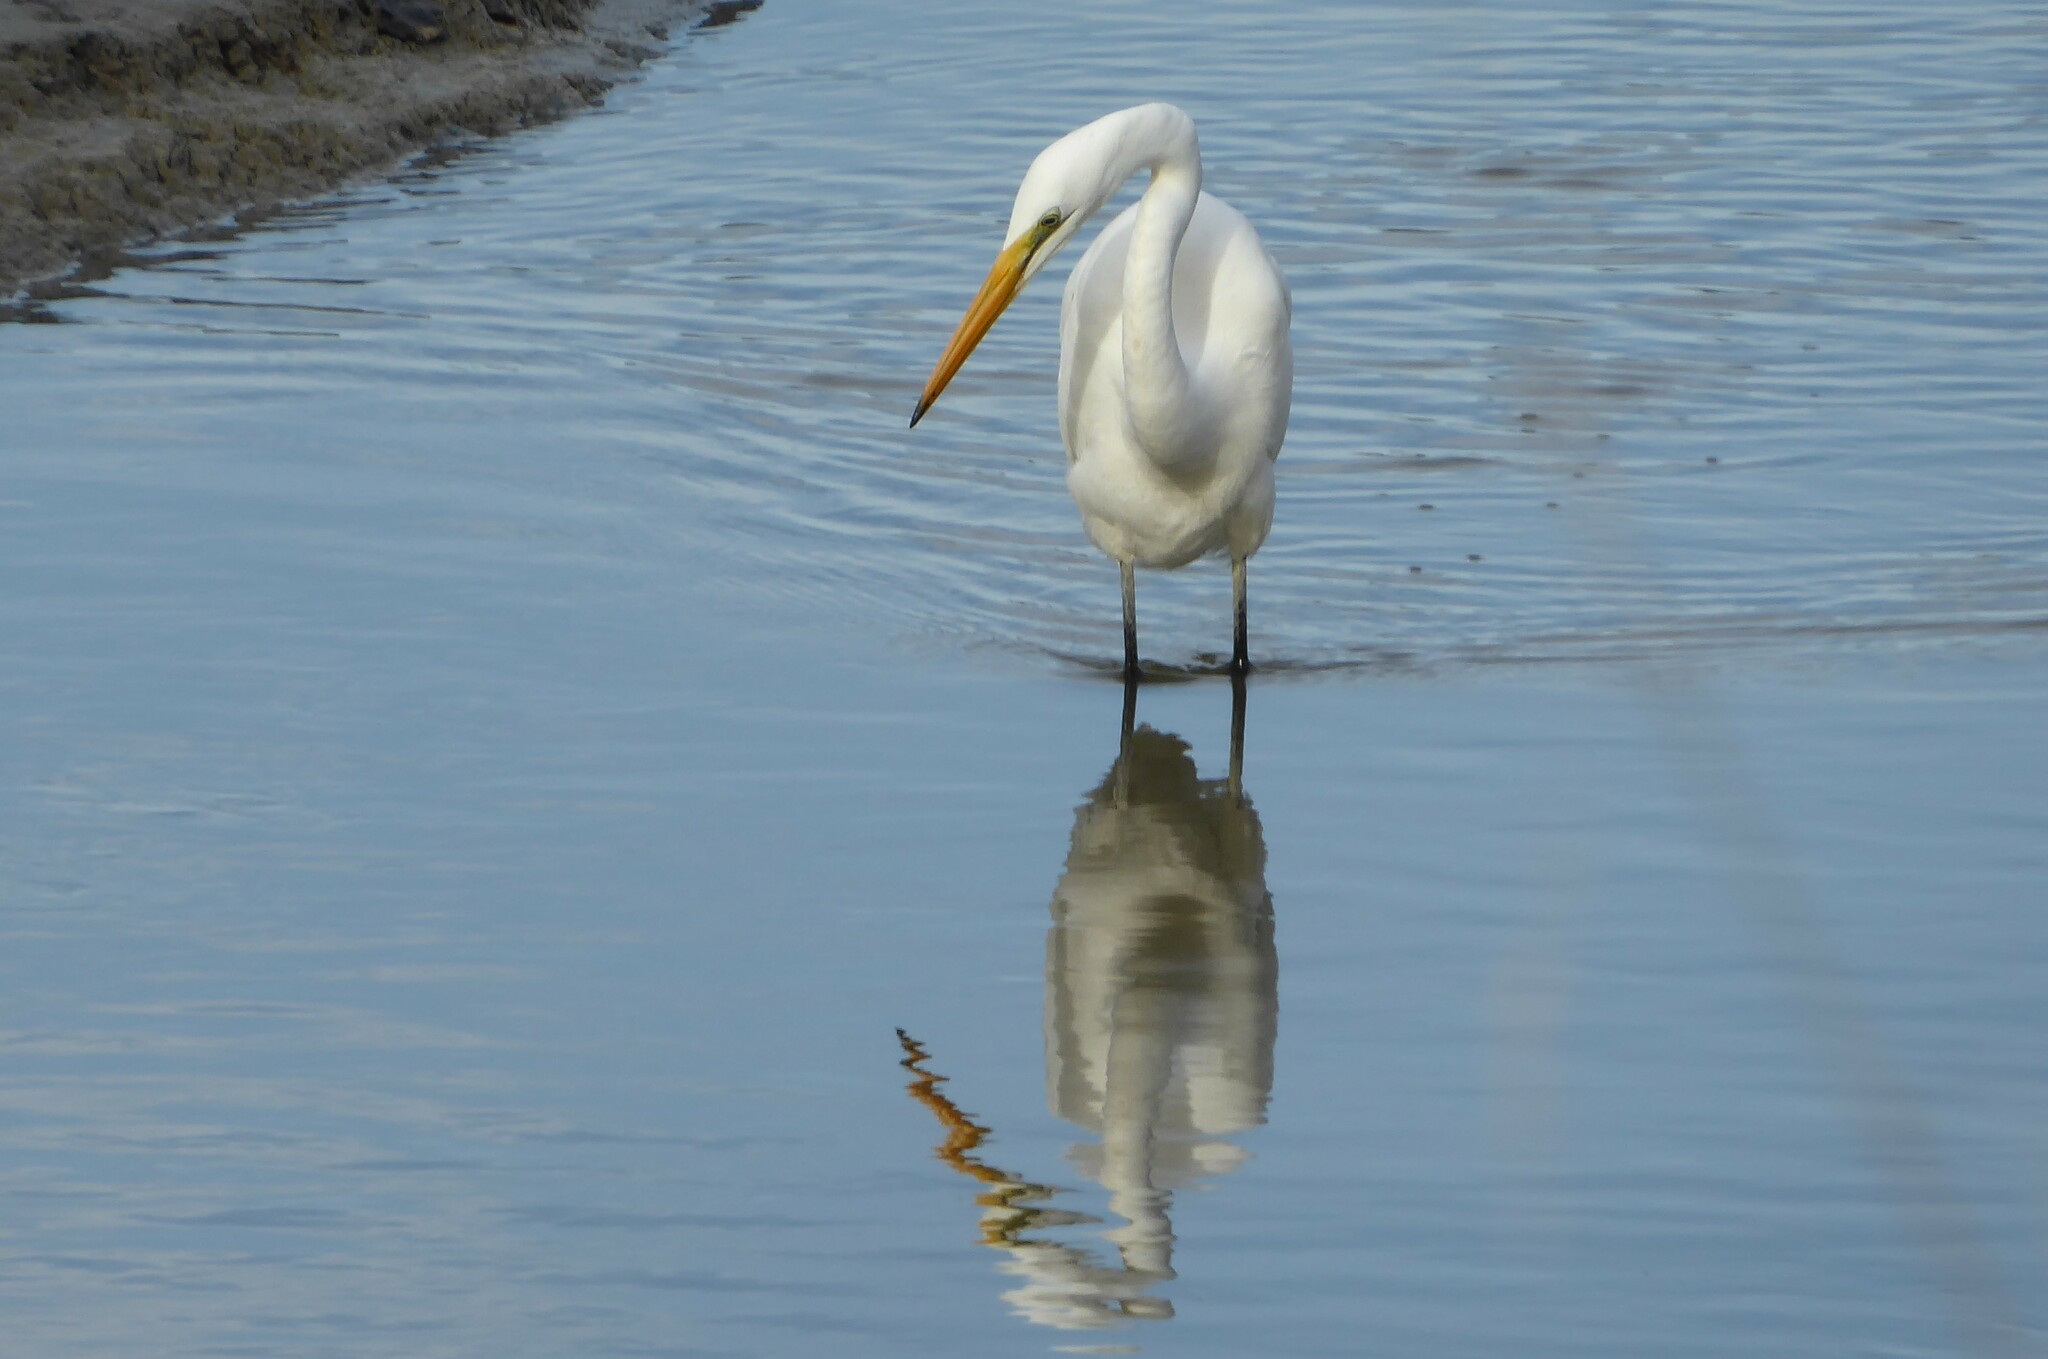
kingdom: Animalia
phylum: Chordata
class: Aves
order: Pelecaniformes
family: Ardeidae
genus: Ardea
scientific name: Ardea modesta
